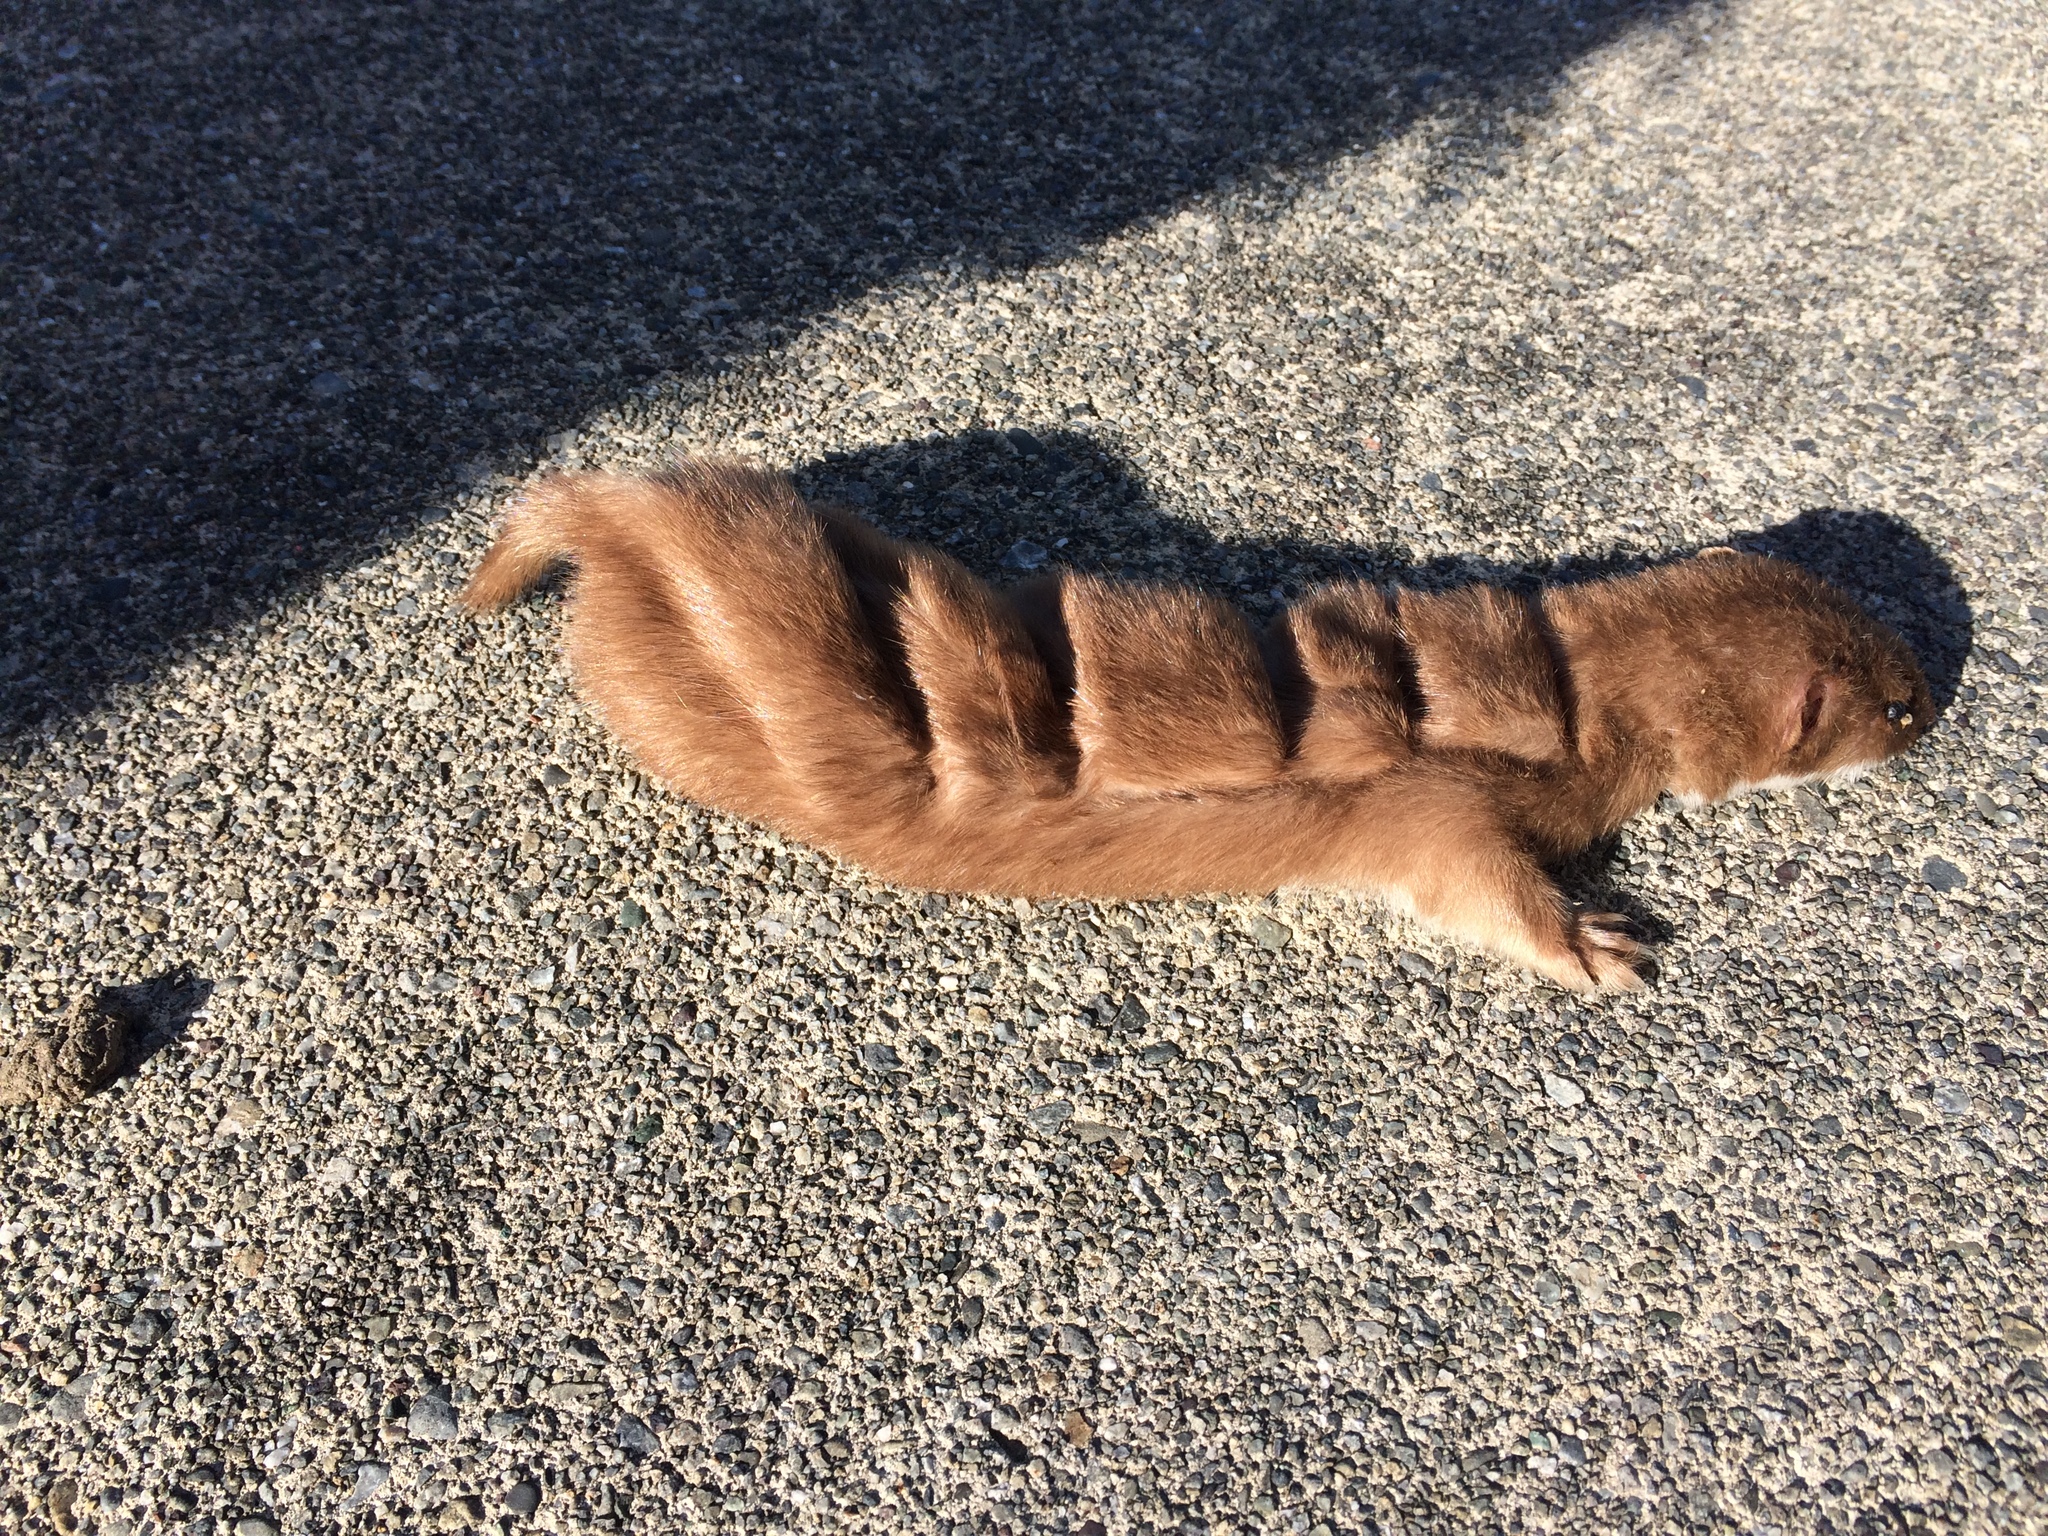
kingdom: Animalia
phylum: Chordata
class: Mammalia
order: Carnivora
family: Mustelidae
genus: Mustela
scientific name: Mustela nivalis
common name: Least weasel
